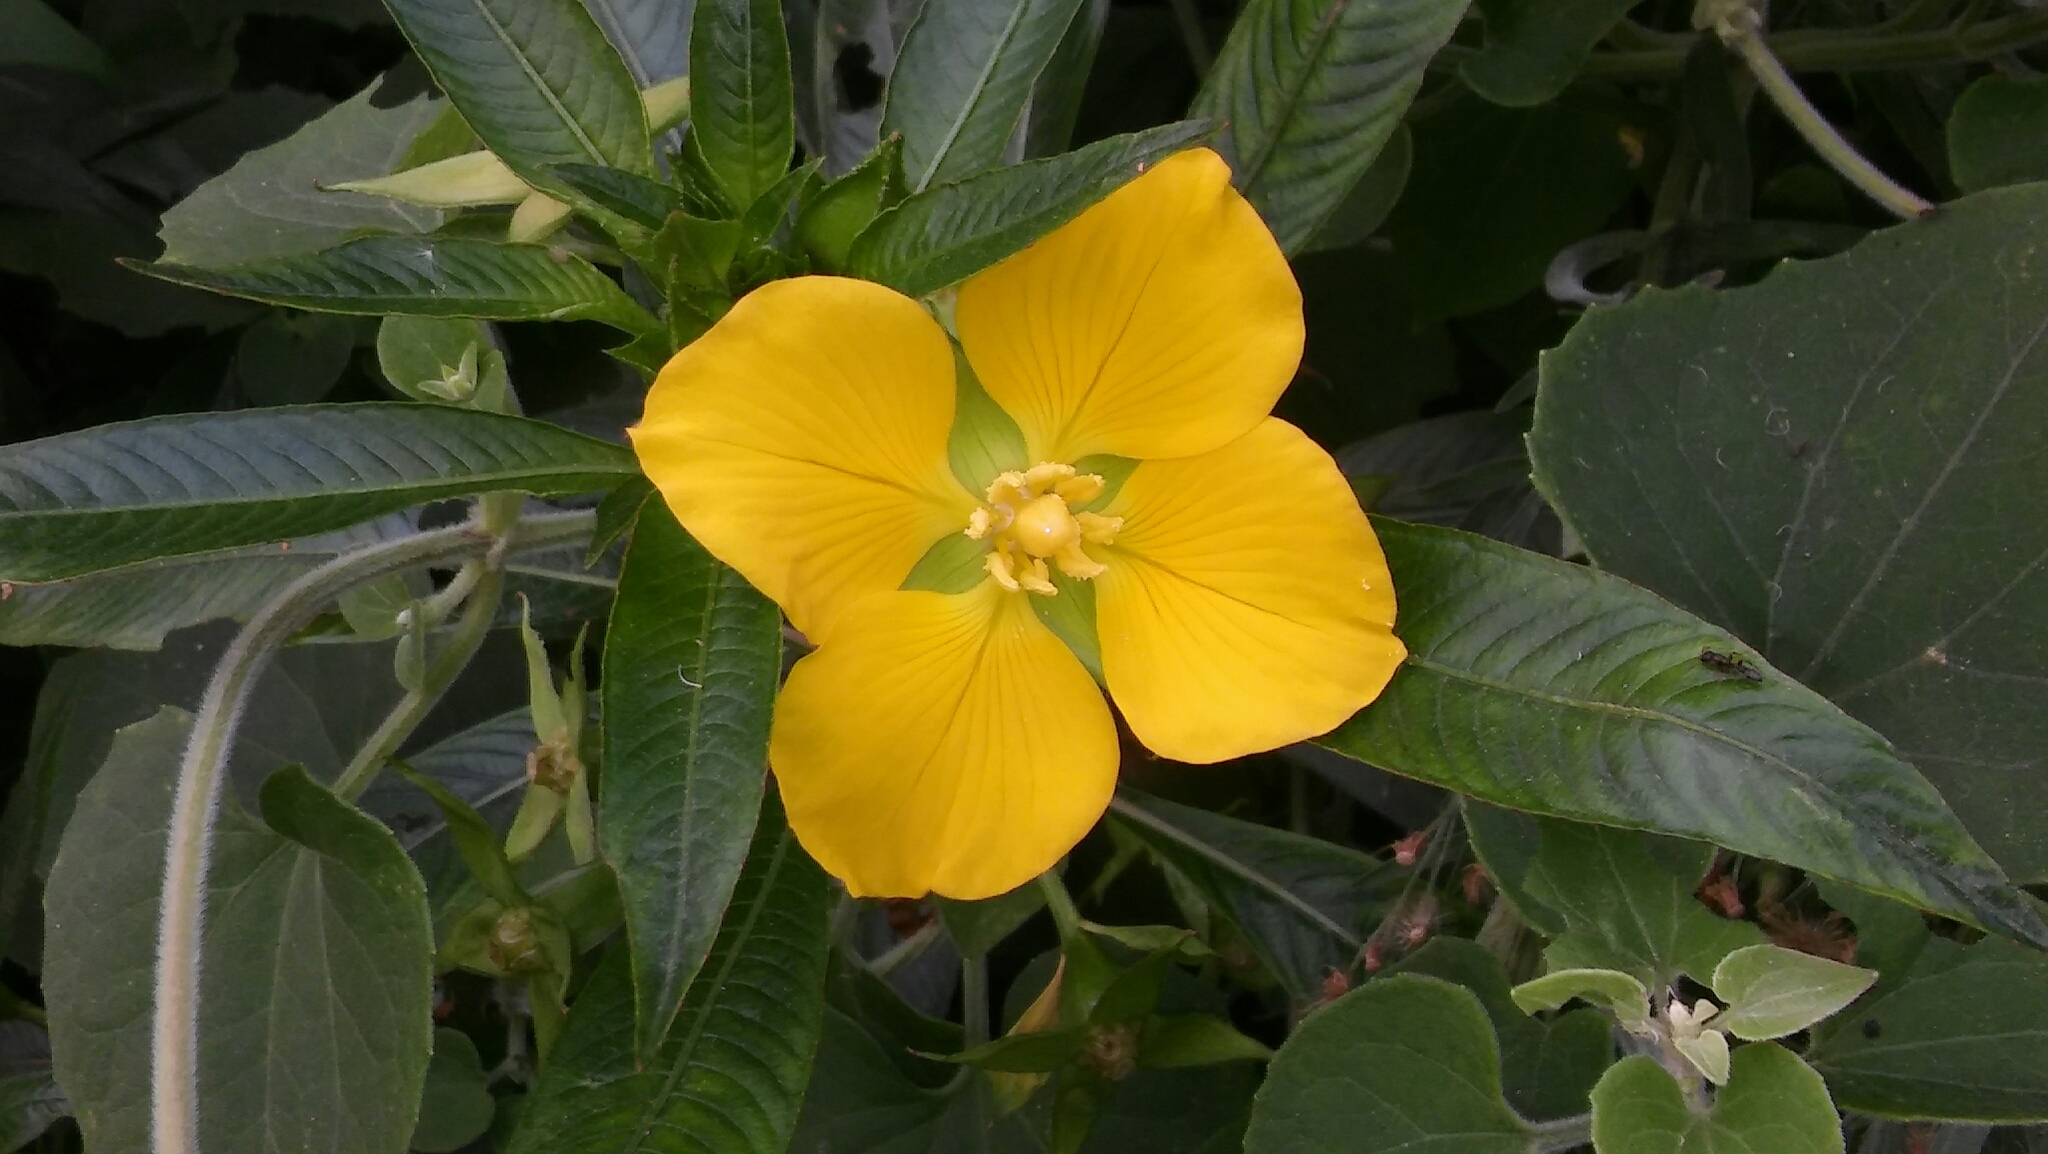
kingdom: Plantae
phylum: Tracheophyta
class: Magnoliopsida
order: Myrtales
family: Onagraceae
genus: Ludwigia
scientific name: Ludwigia elegans
